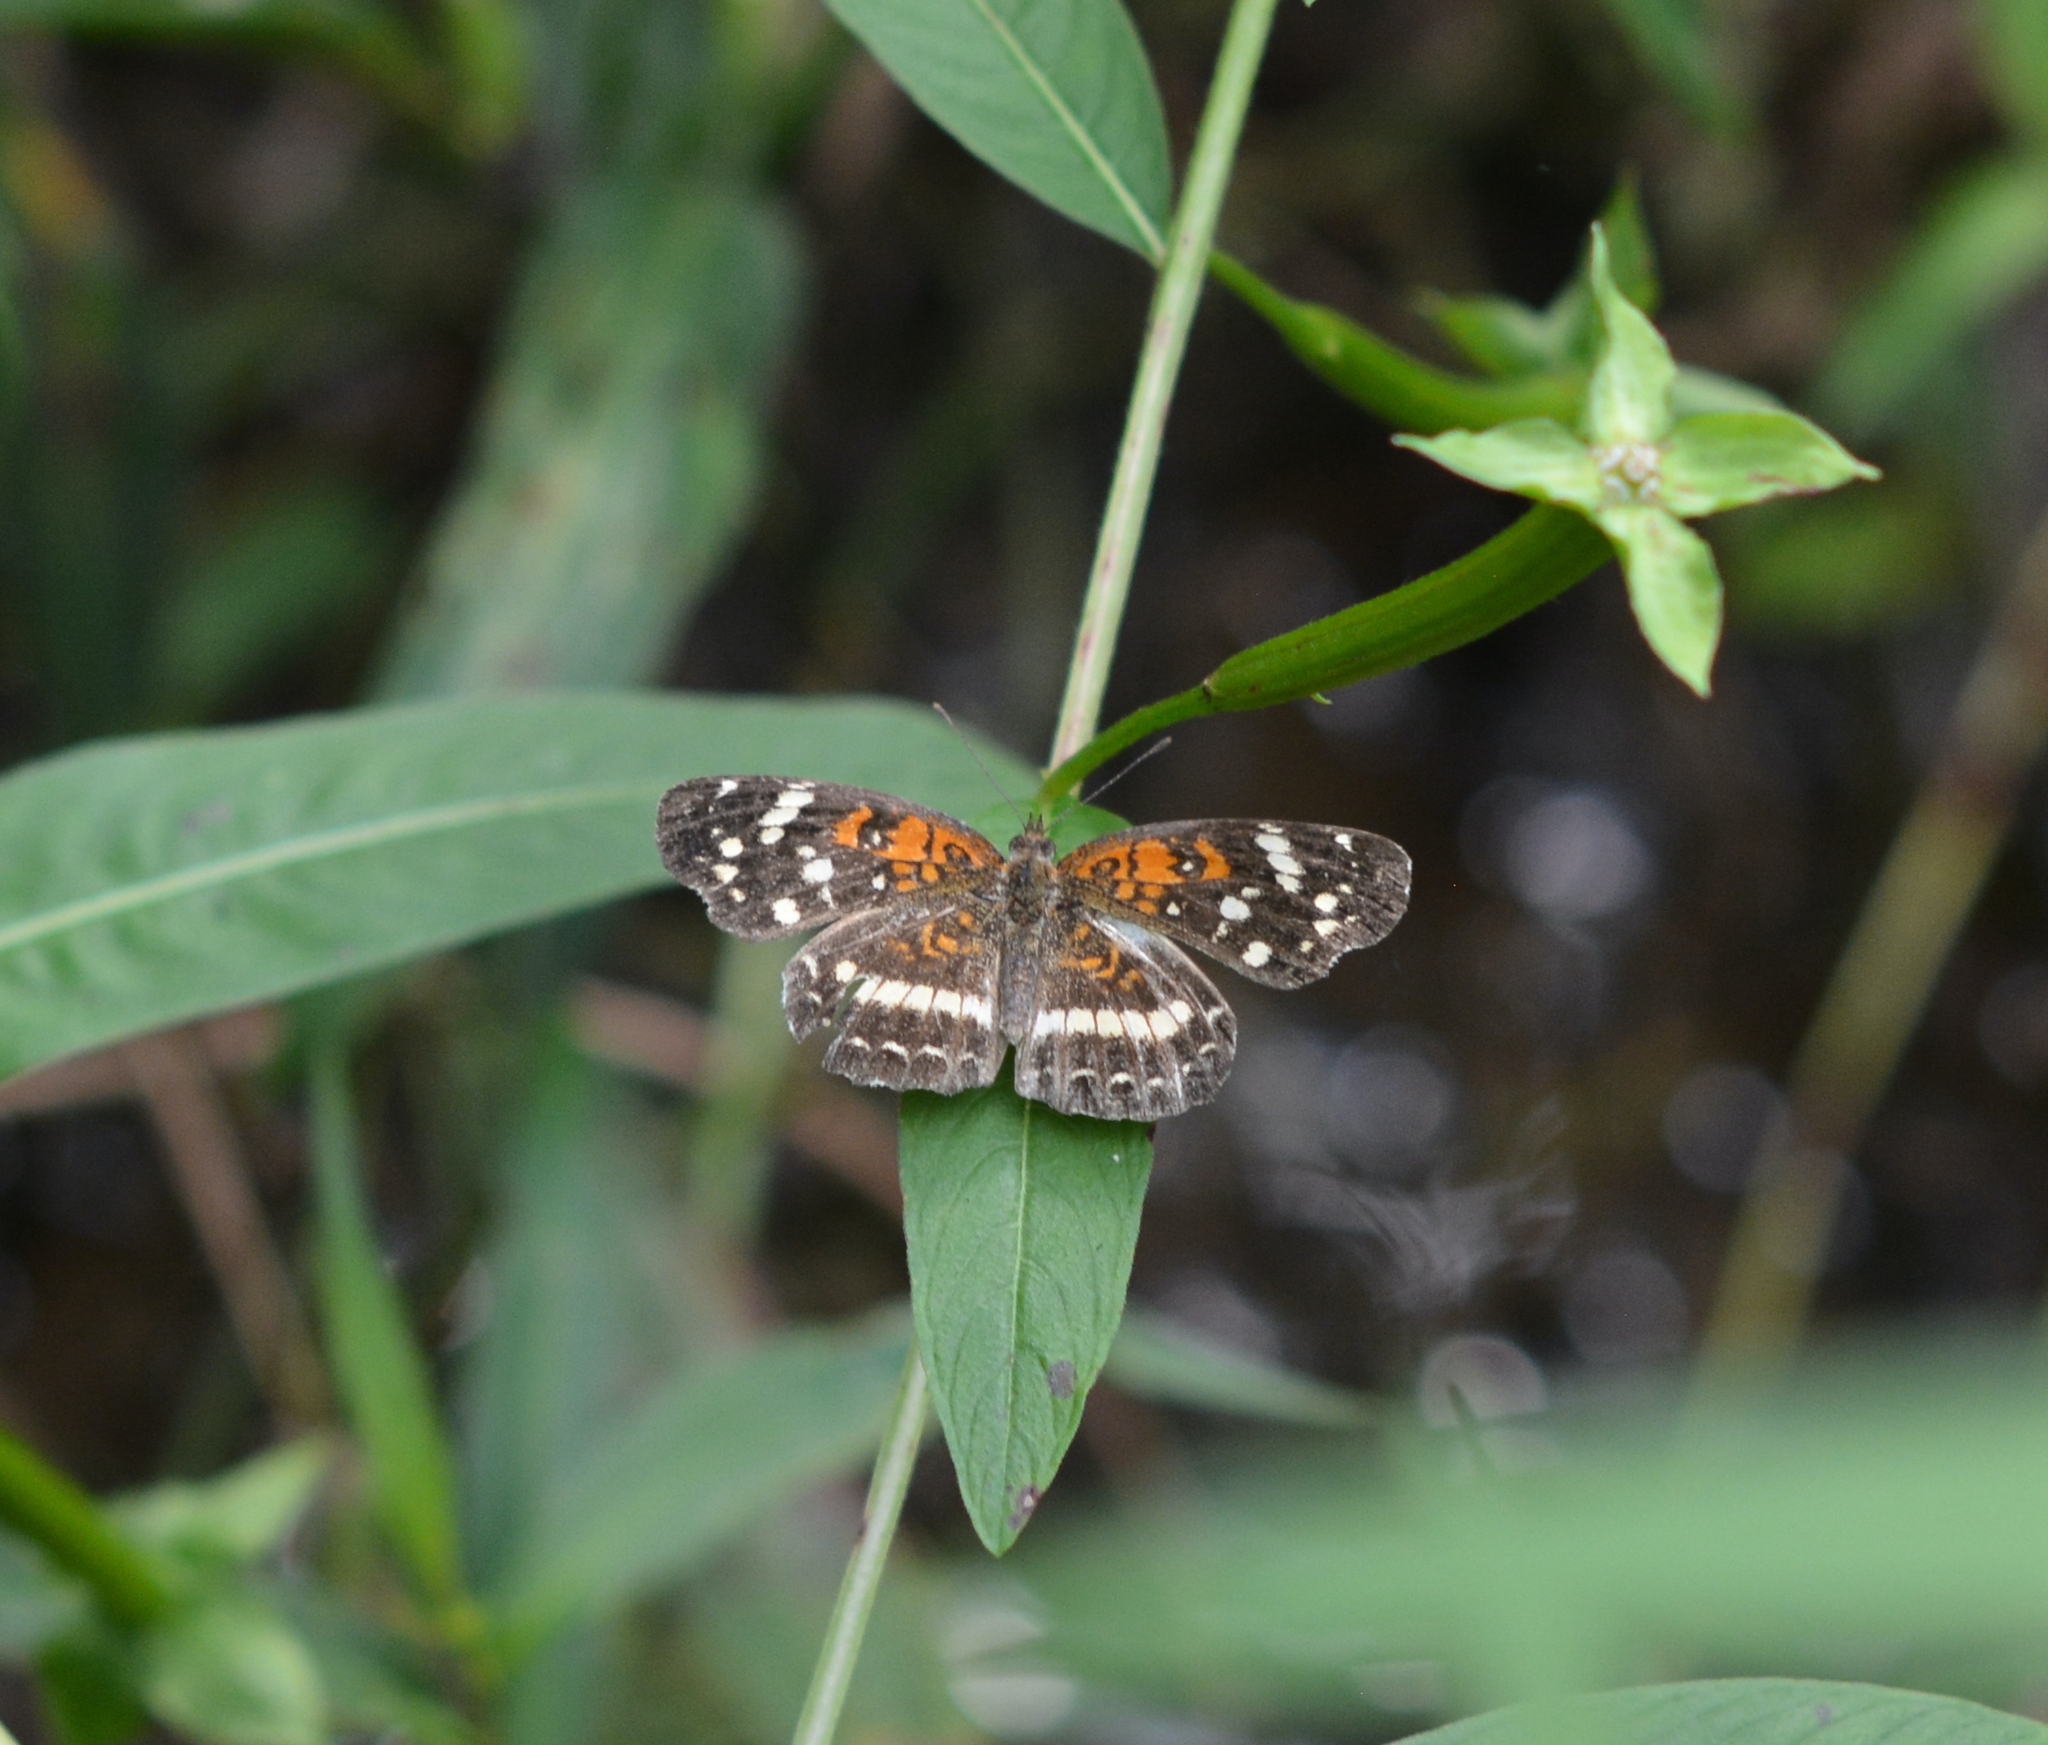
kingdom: Animalia
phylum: Arthropoda
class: Insecta
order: Lepidoptera
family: Nymphalidae
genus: Anthanassa
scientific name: Anthanassa taxana
